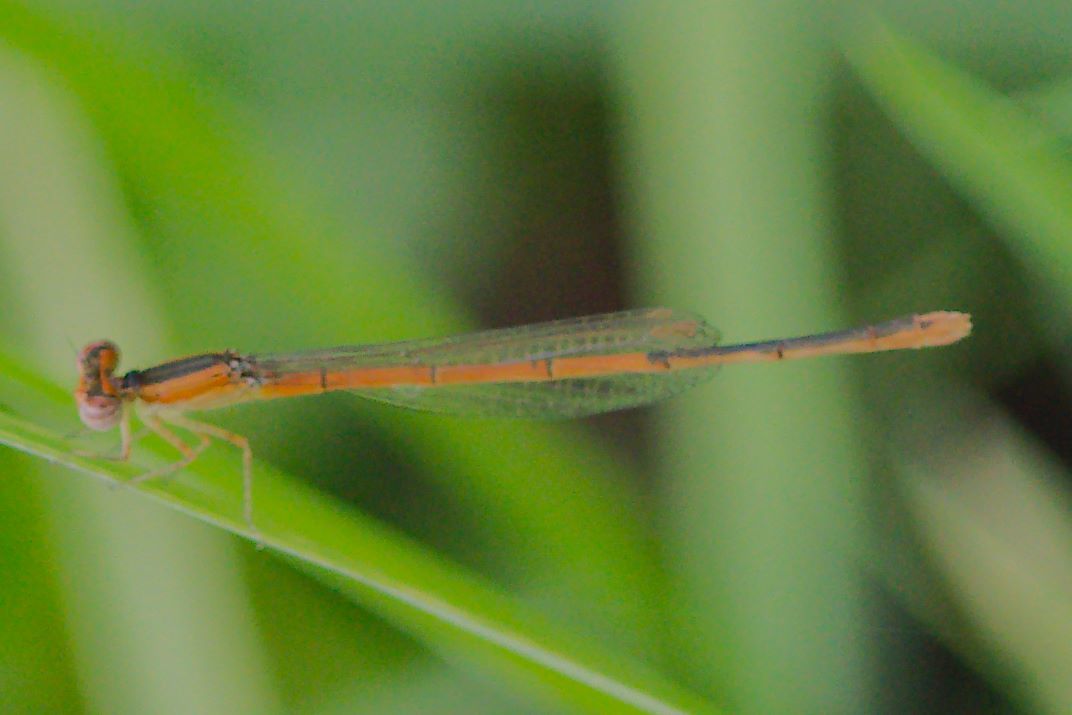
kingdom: Animalia
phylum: Arthropoda
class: Insecta
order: Odonata
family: Coenagrionidae
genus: Ischnura
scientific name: Ischnura hastata
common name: Citrine forktail
